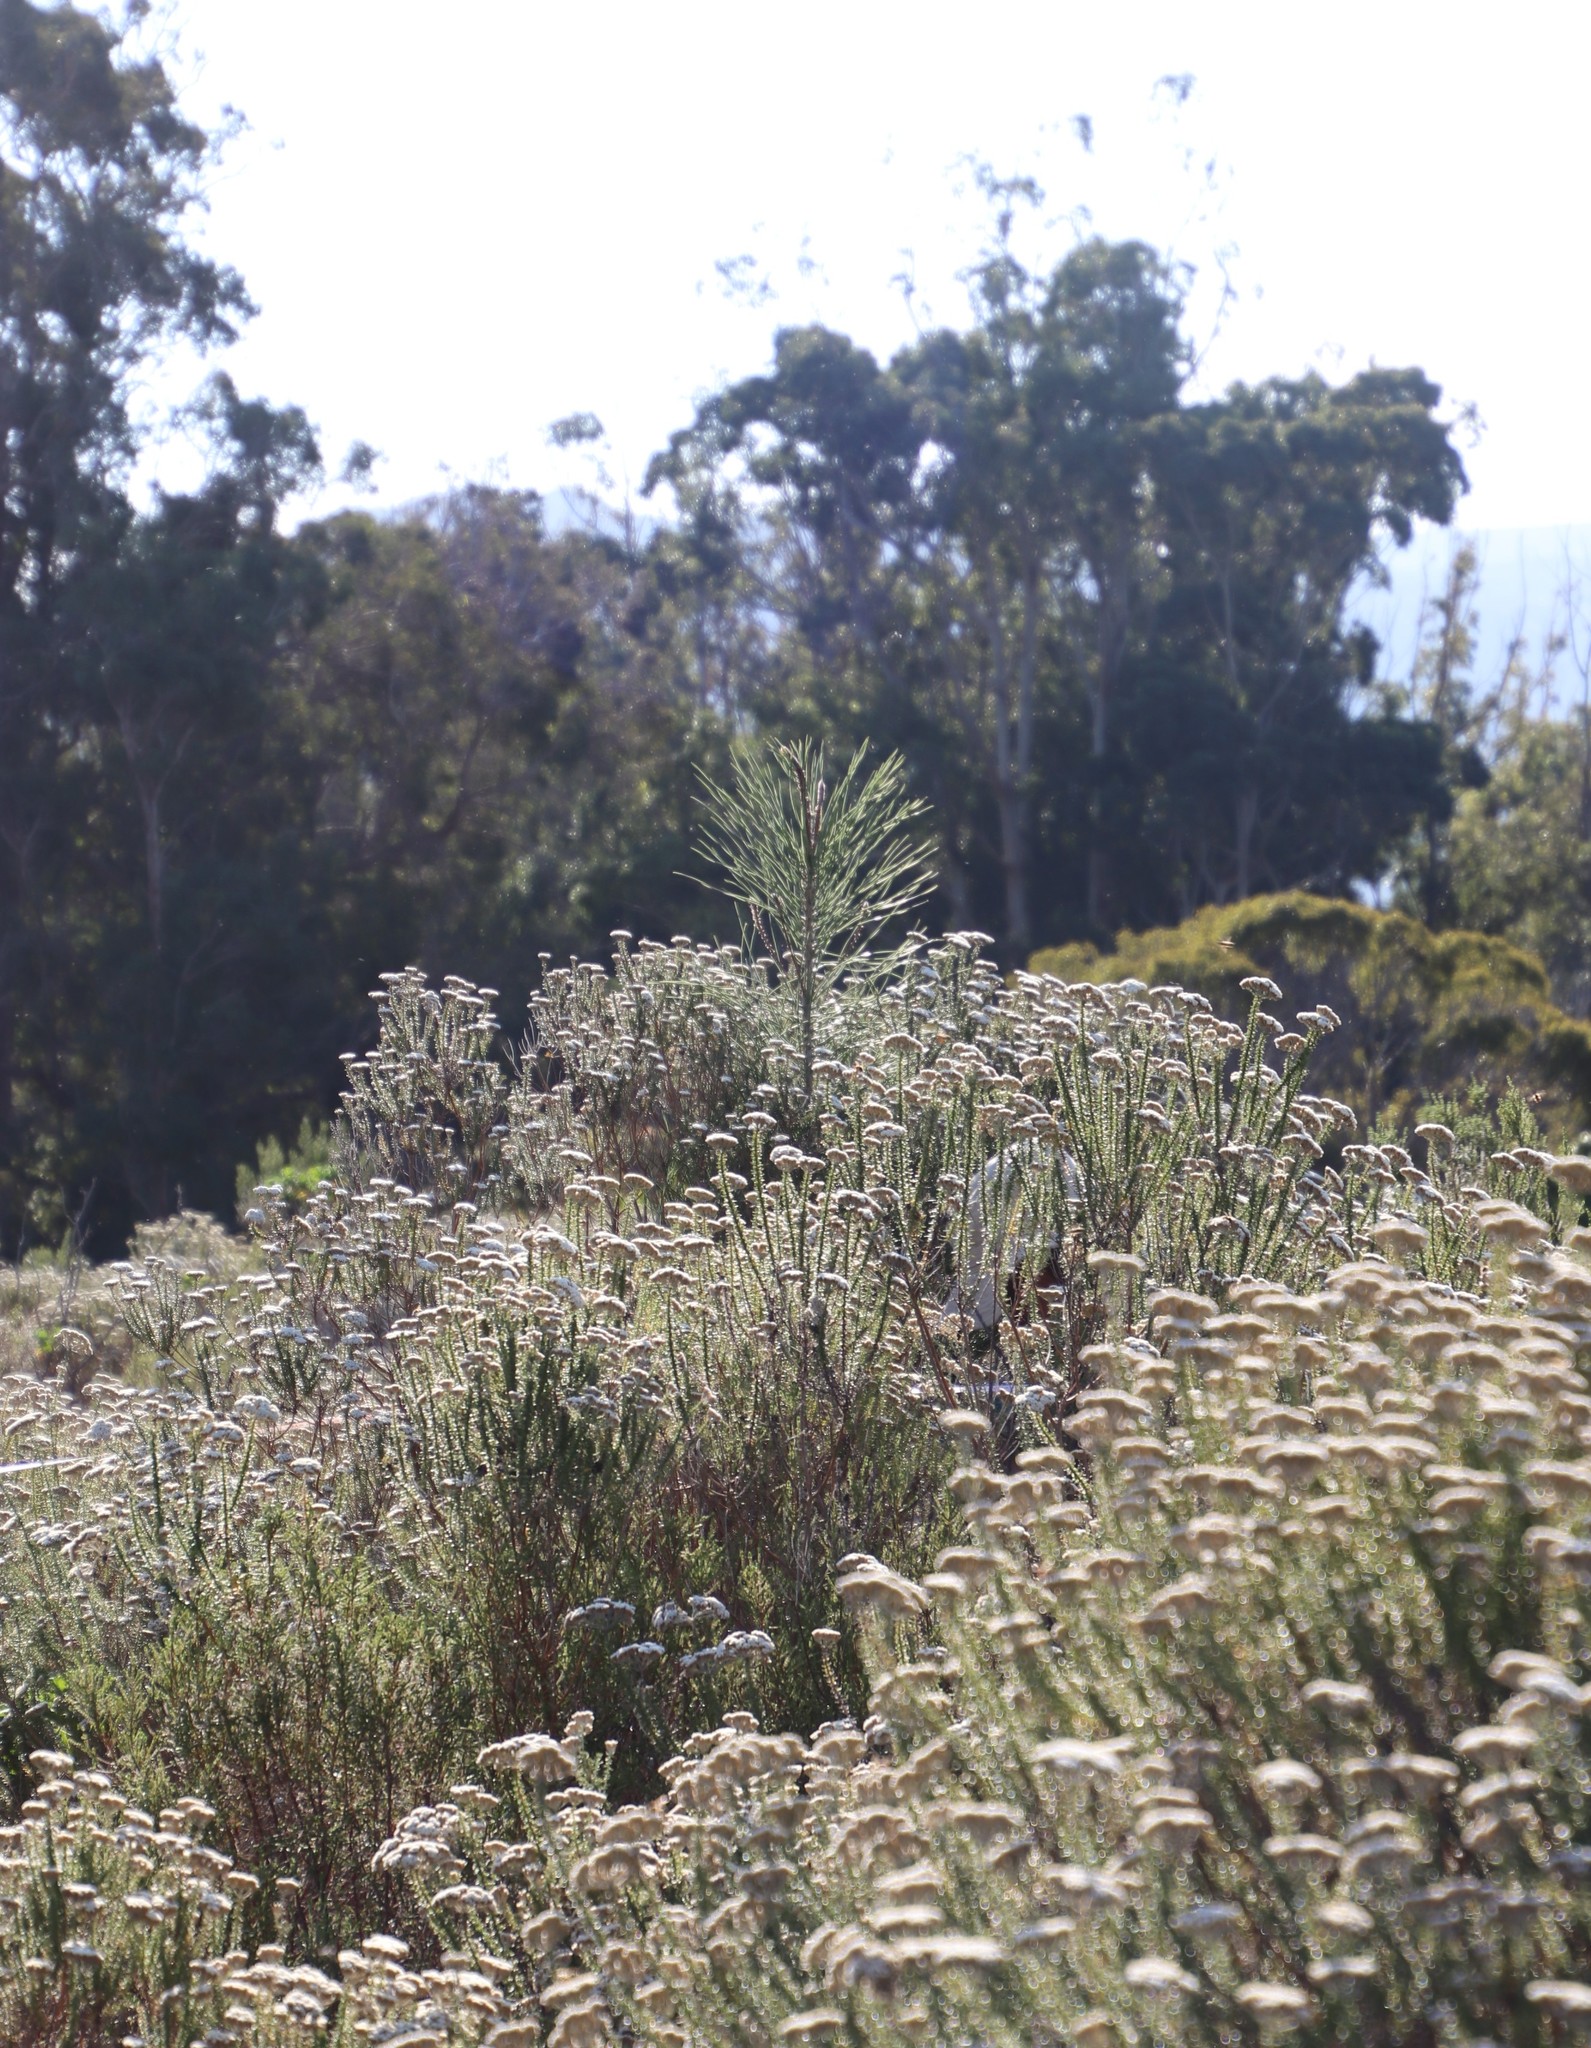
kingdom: Plantae
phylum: Tracheophyta
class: Pinopsida
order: Pinales
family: Pinaceae
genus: Pinus
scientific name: Pinus radiata
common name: Monterey pine
